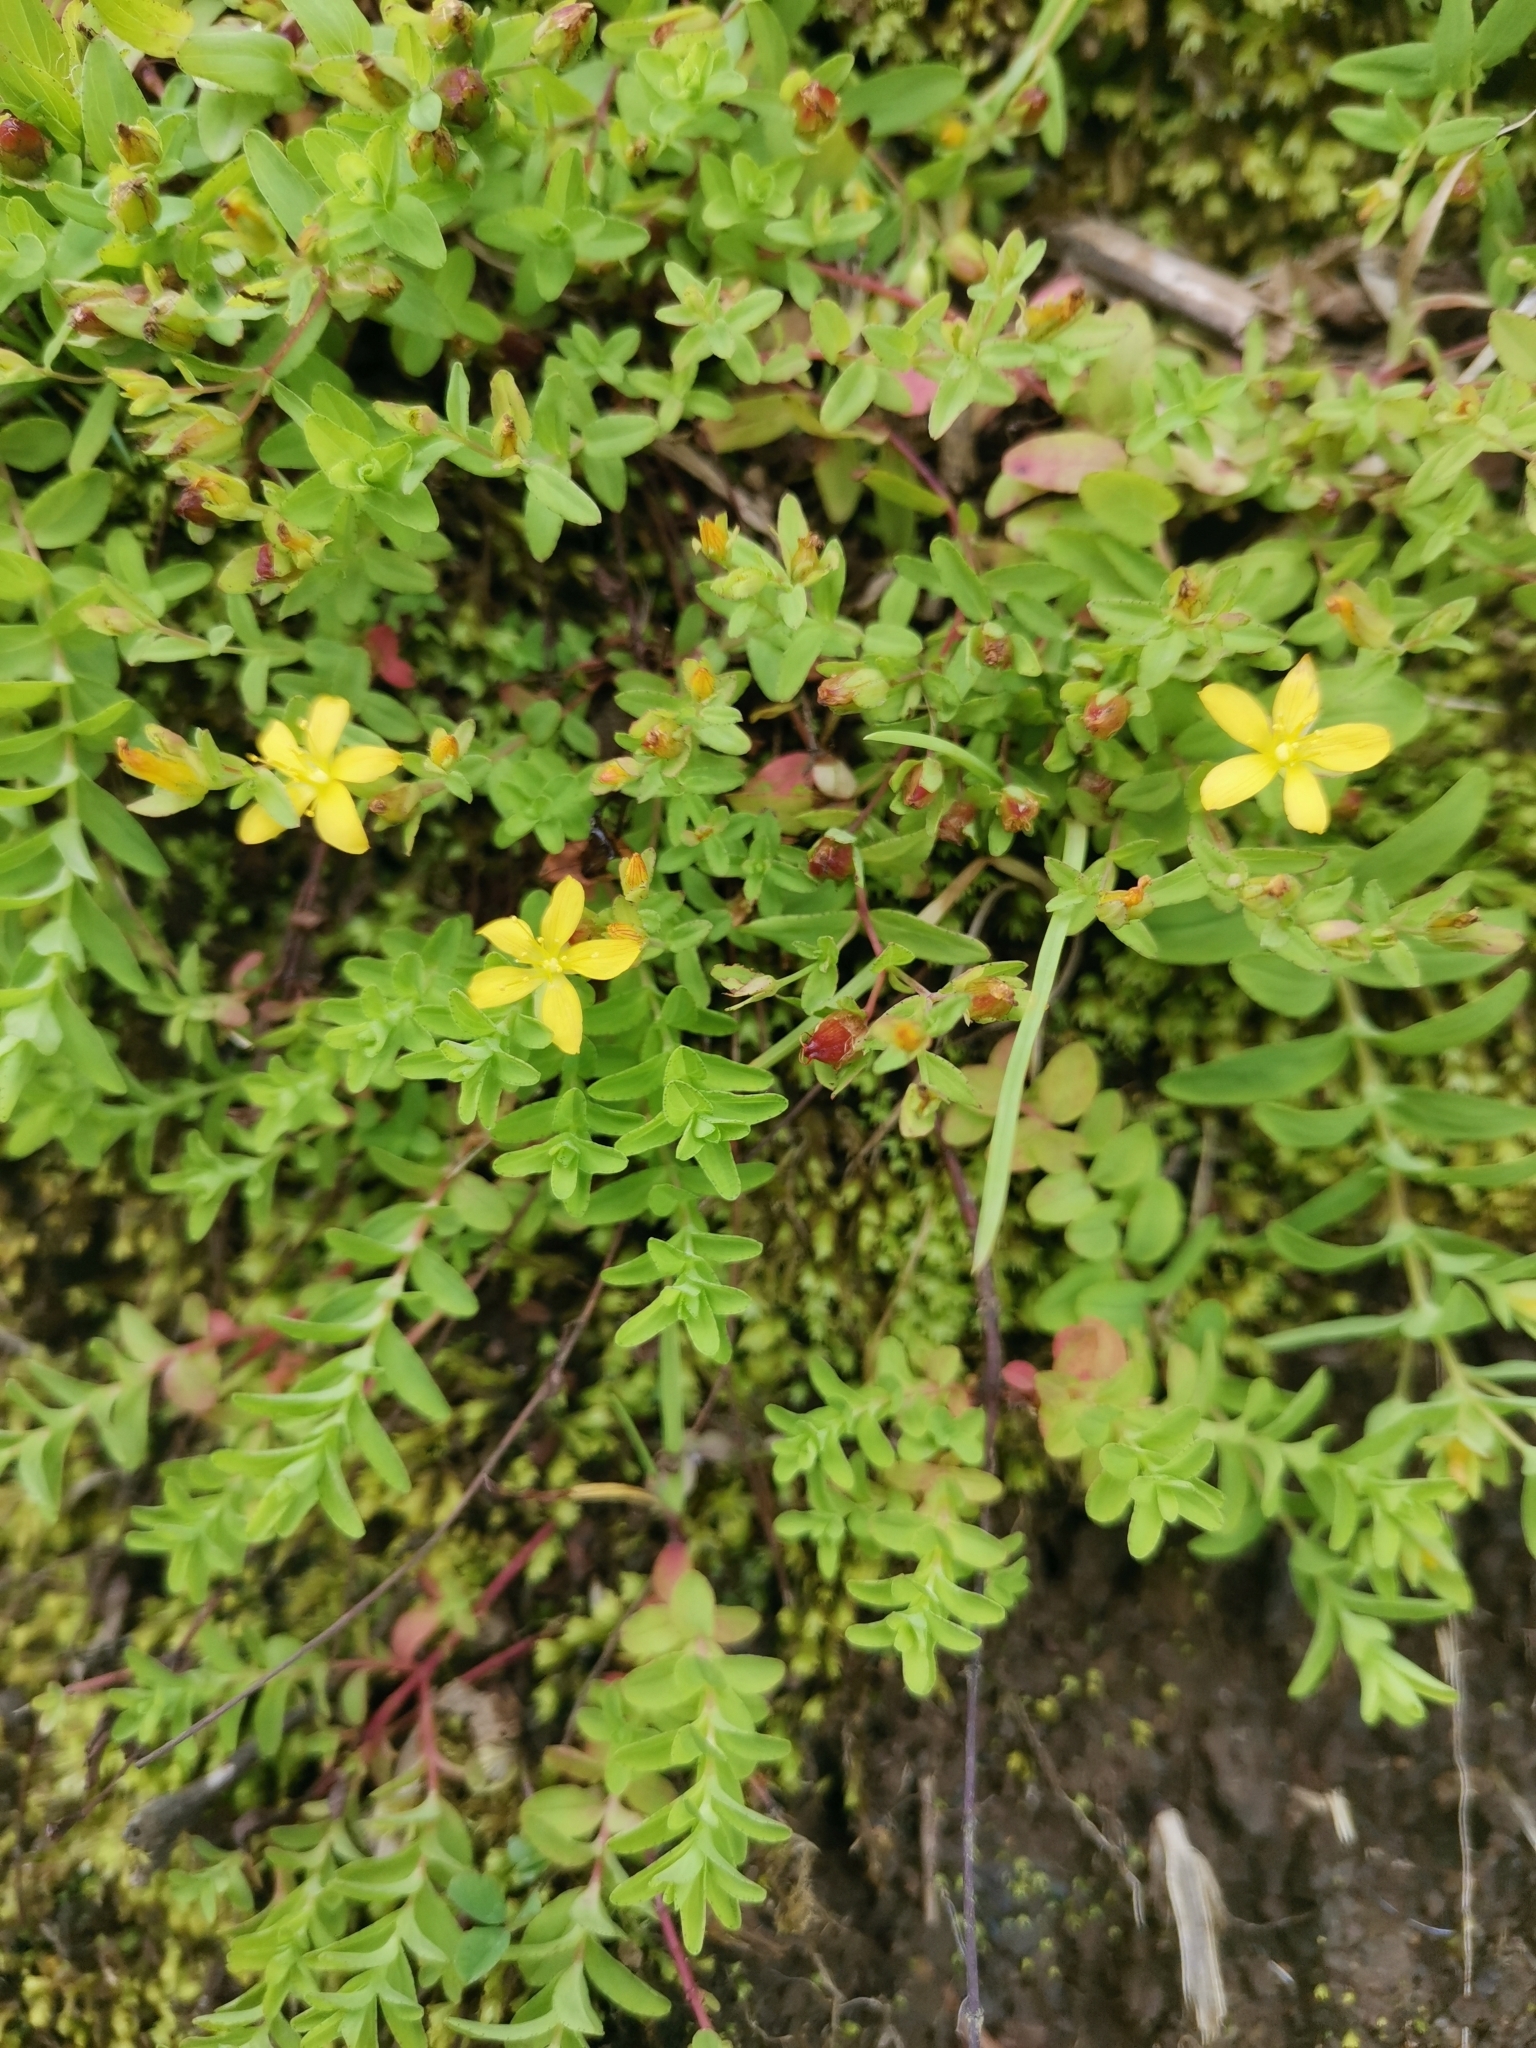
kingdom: Plantae
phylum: Tracheophyta
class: Magnoliopsida
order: Malpighiales
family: Hypericaceae
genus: Hypericum
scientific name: Hypericum humifusum
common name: Trailing st. john's-wort
